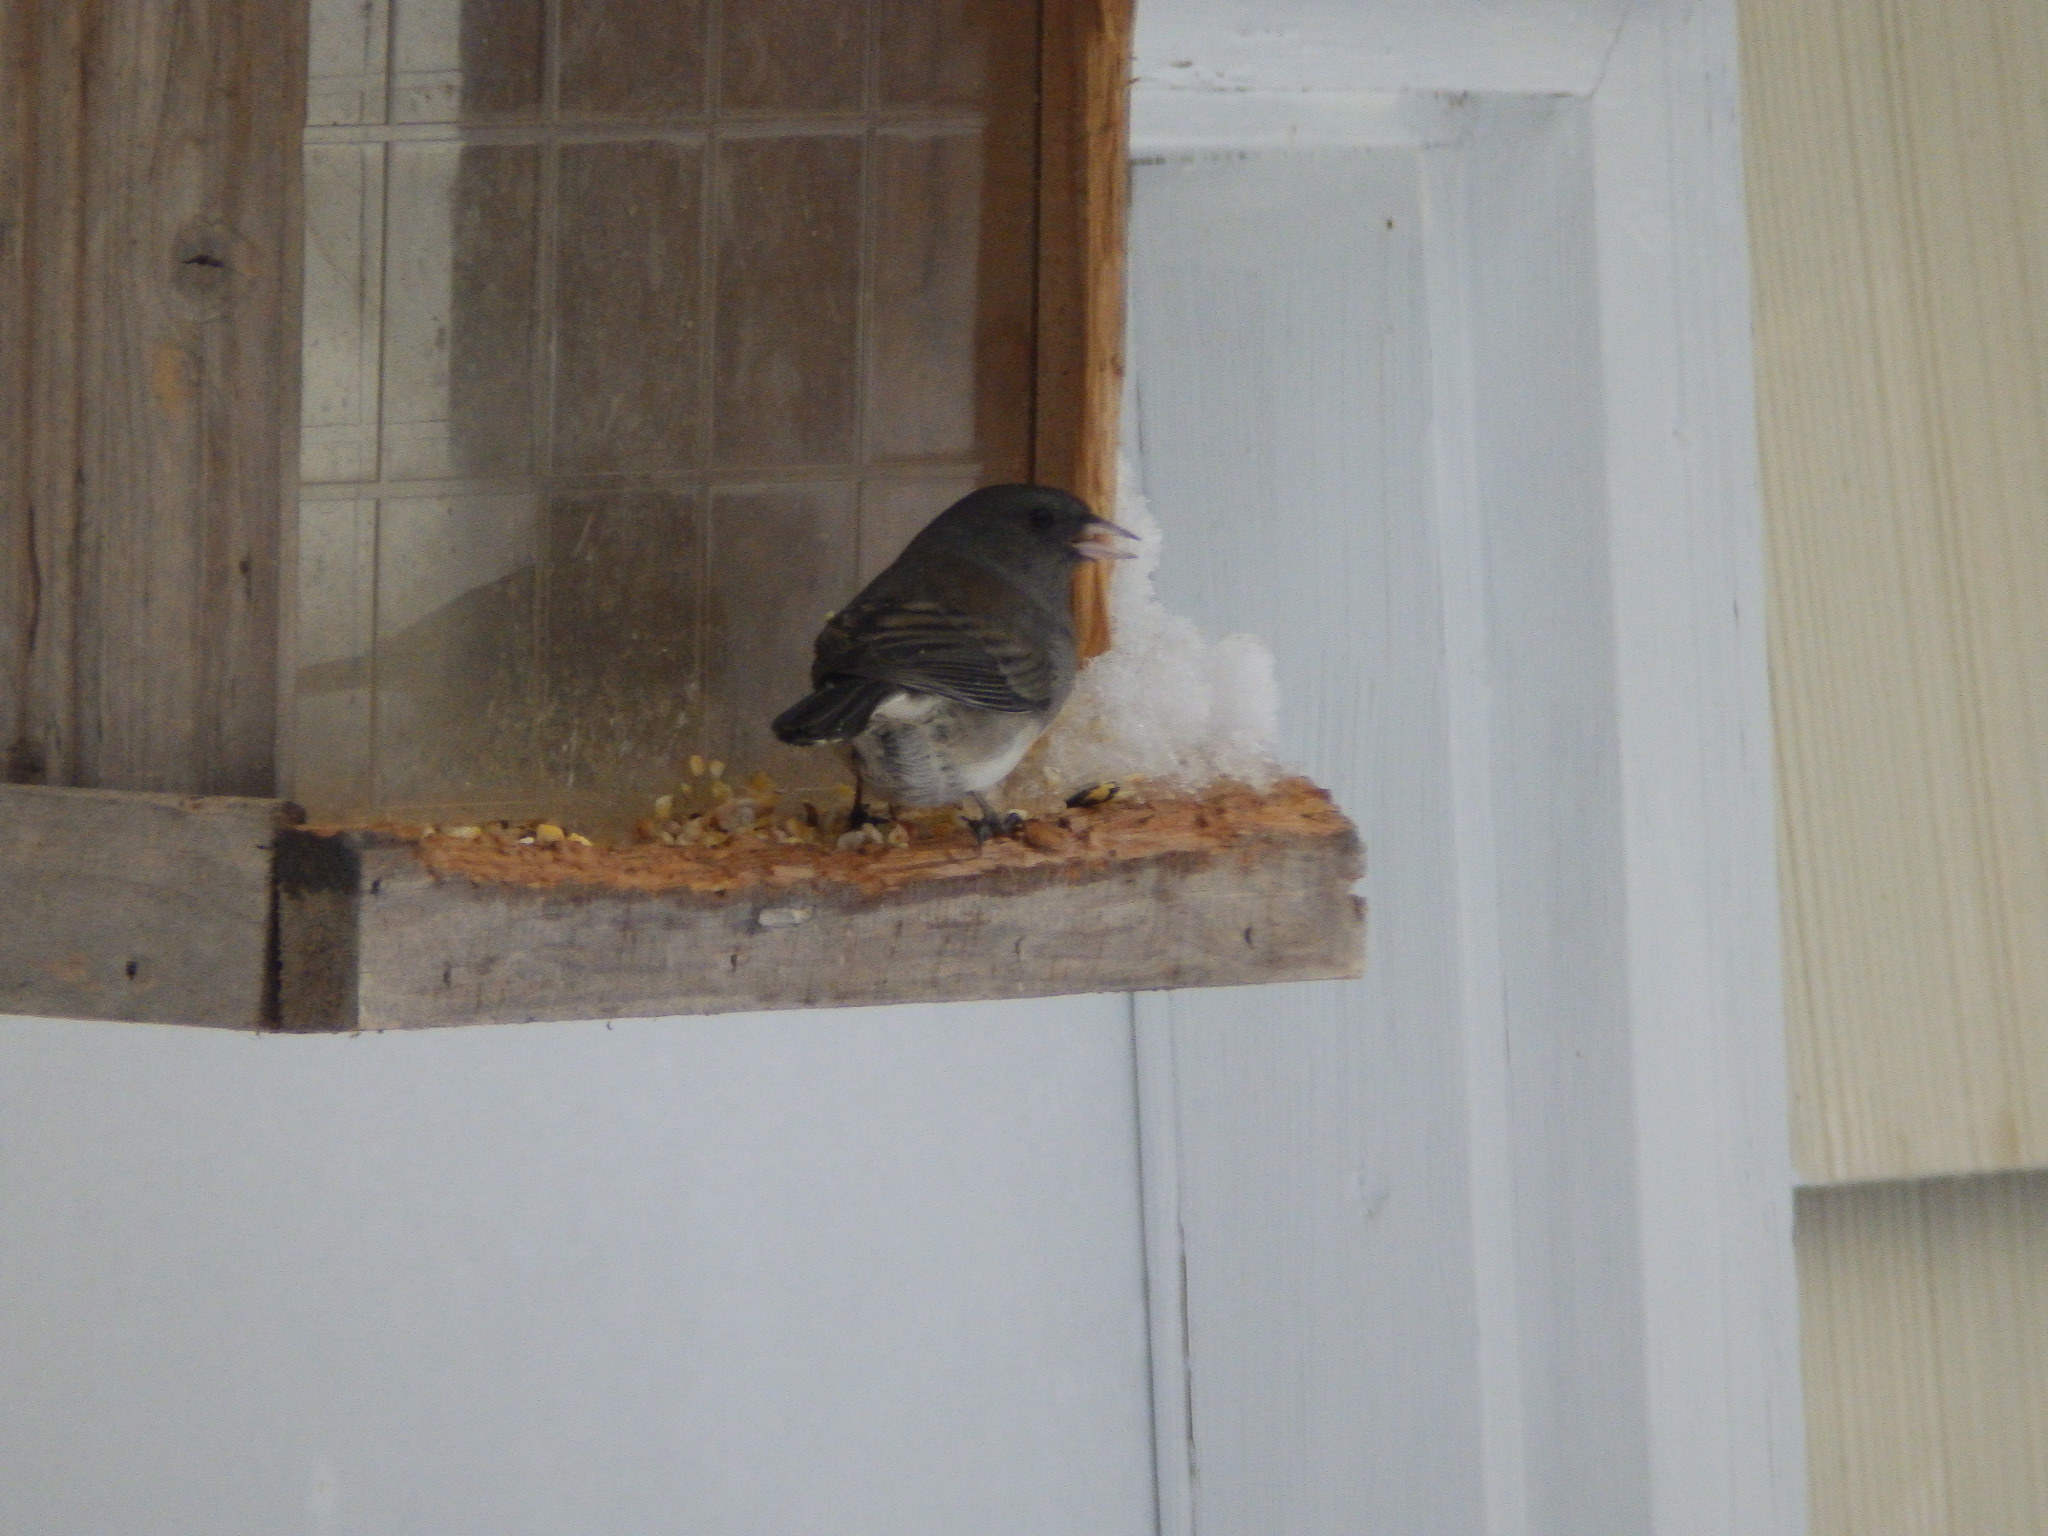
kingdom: Animalia
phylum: Chordata
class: Aves
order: Passeriformes
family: Passerellidae
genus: Junco
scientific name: Junco hyemalis
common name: Dark-eyed junco
